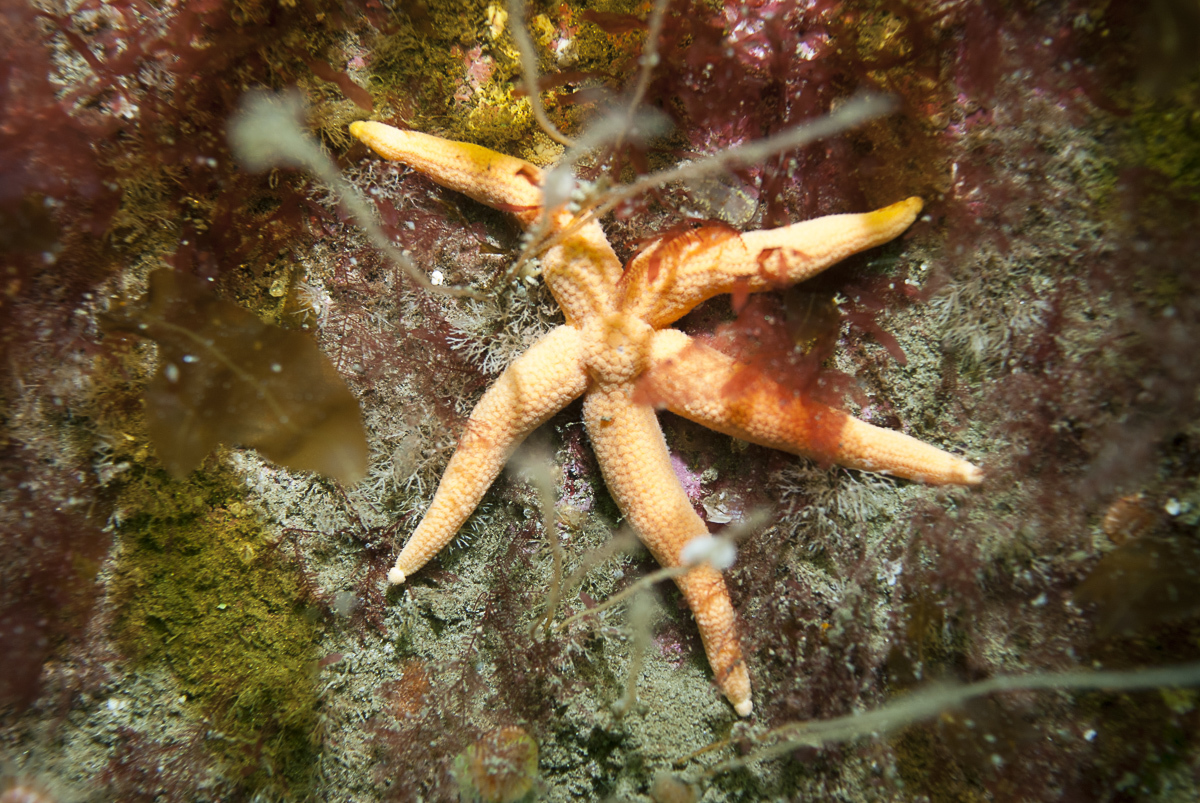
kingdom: Animalia
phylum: Echinodermata
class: Asteroidea
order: Forcipulatida
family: Stichasteridae
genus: Stichastrella
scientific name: Stichastrella rosea
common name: Rosy starfish
